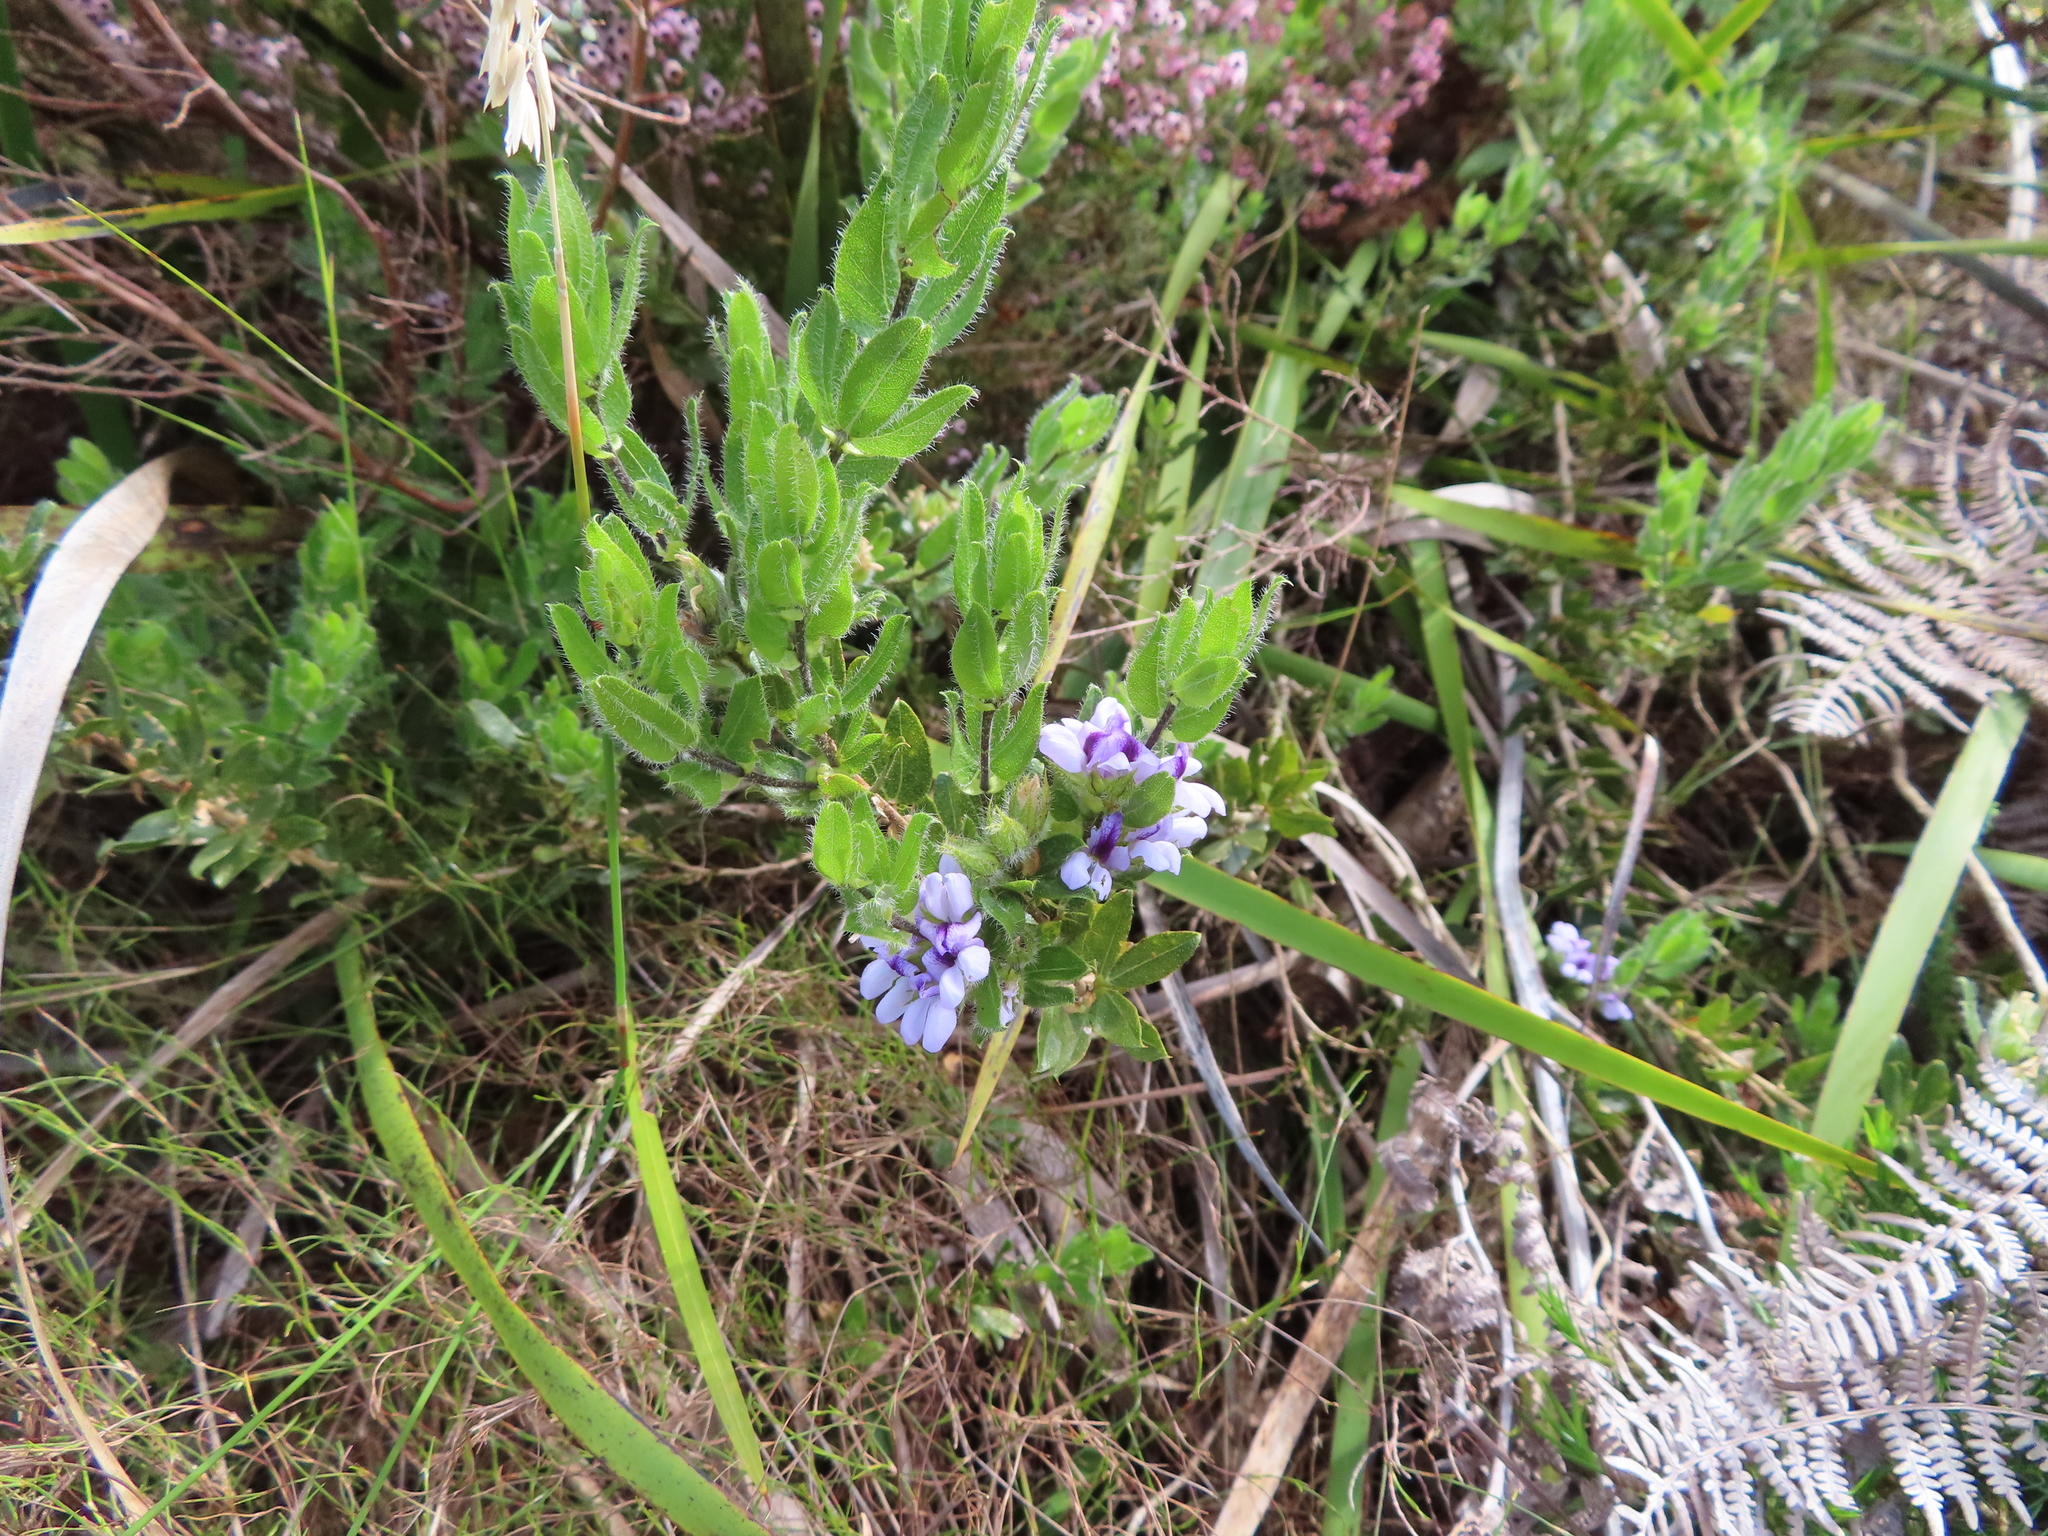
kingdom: Plantae
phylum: Tracheophyta
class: Magnoliopsida
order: Fabales
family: Fabaceae
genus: Psoralea
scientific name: Psoralea obliqua
